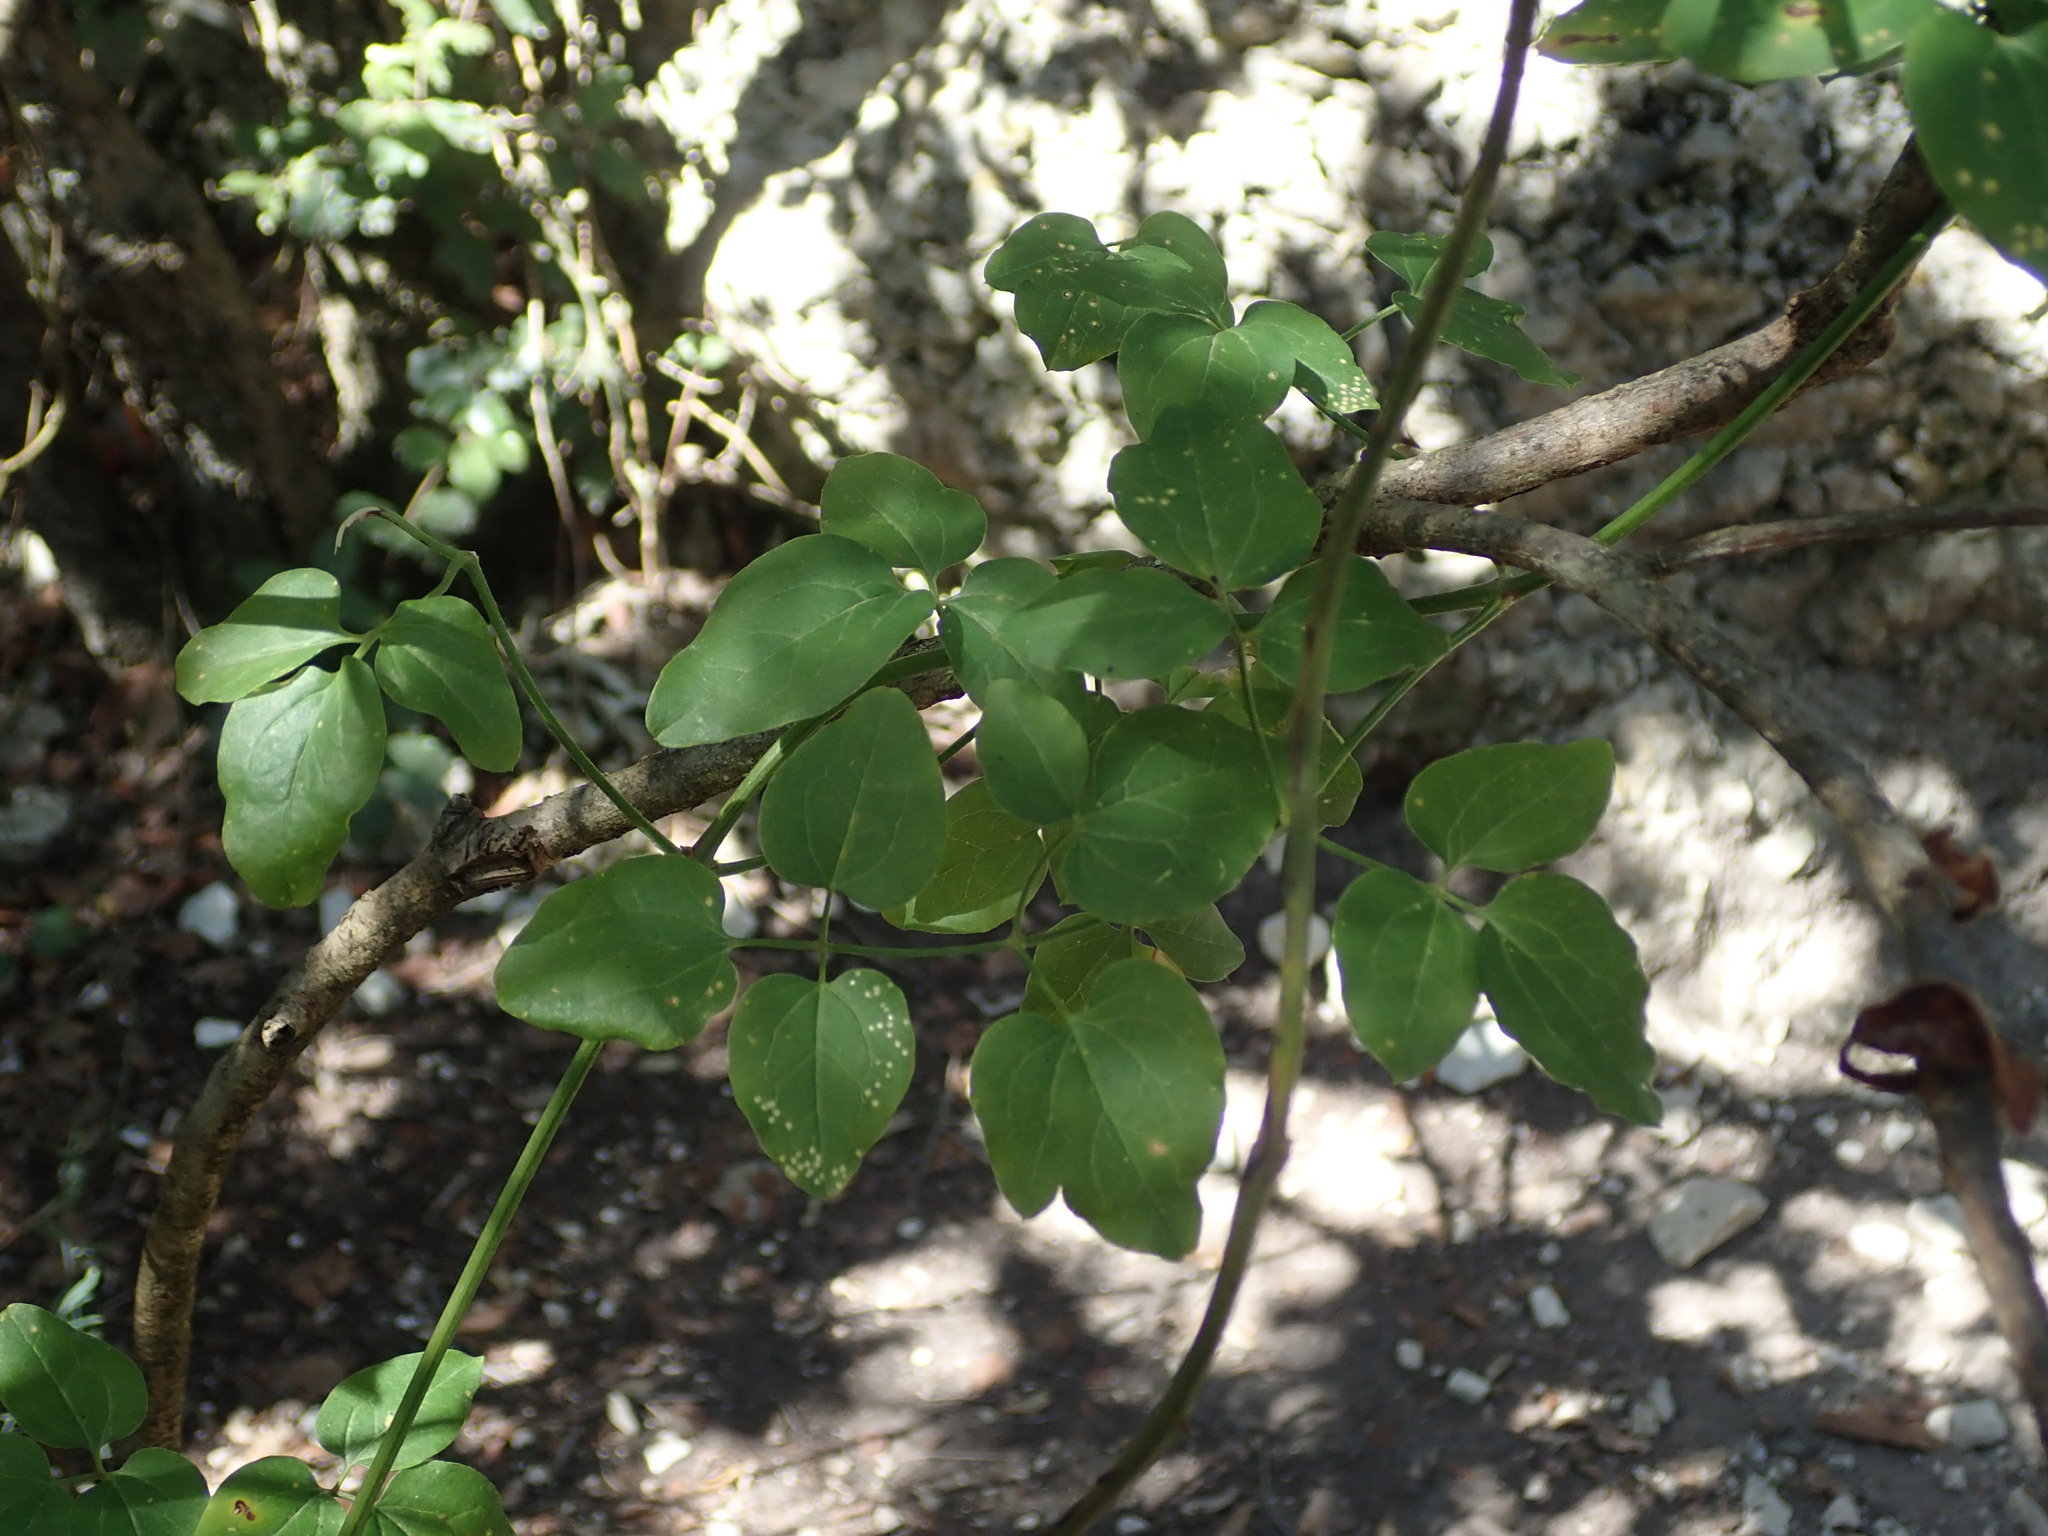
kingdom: Plantae
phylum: Tracheophyta
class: Magnoliopsida
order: Ranunculales
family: Ranunculaceae
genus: Clematis
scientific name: Clematis flammula
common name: Virgin's-bower
